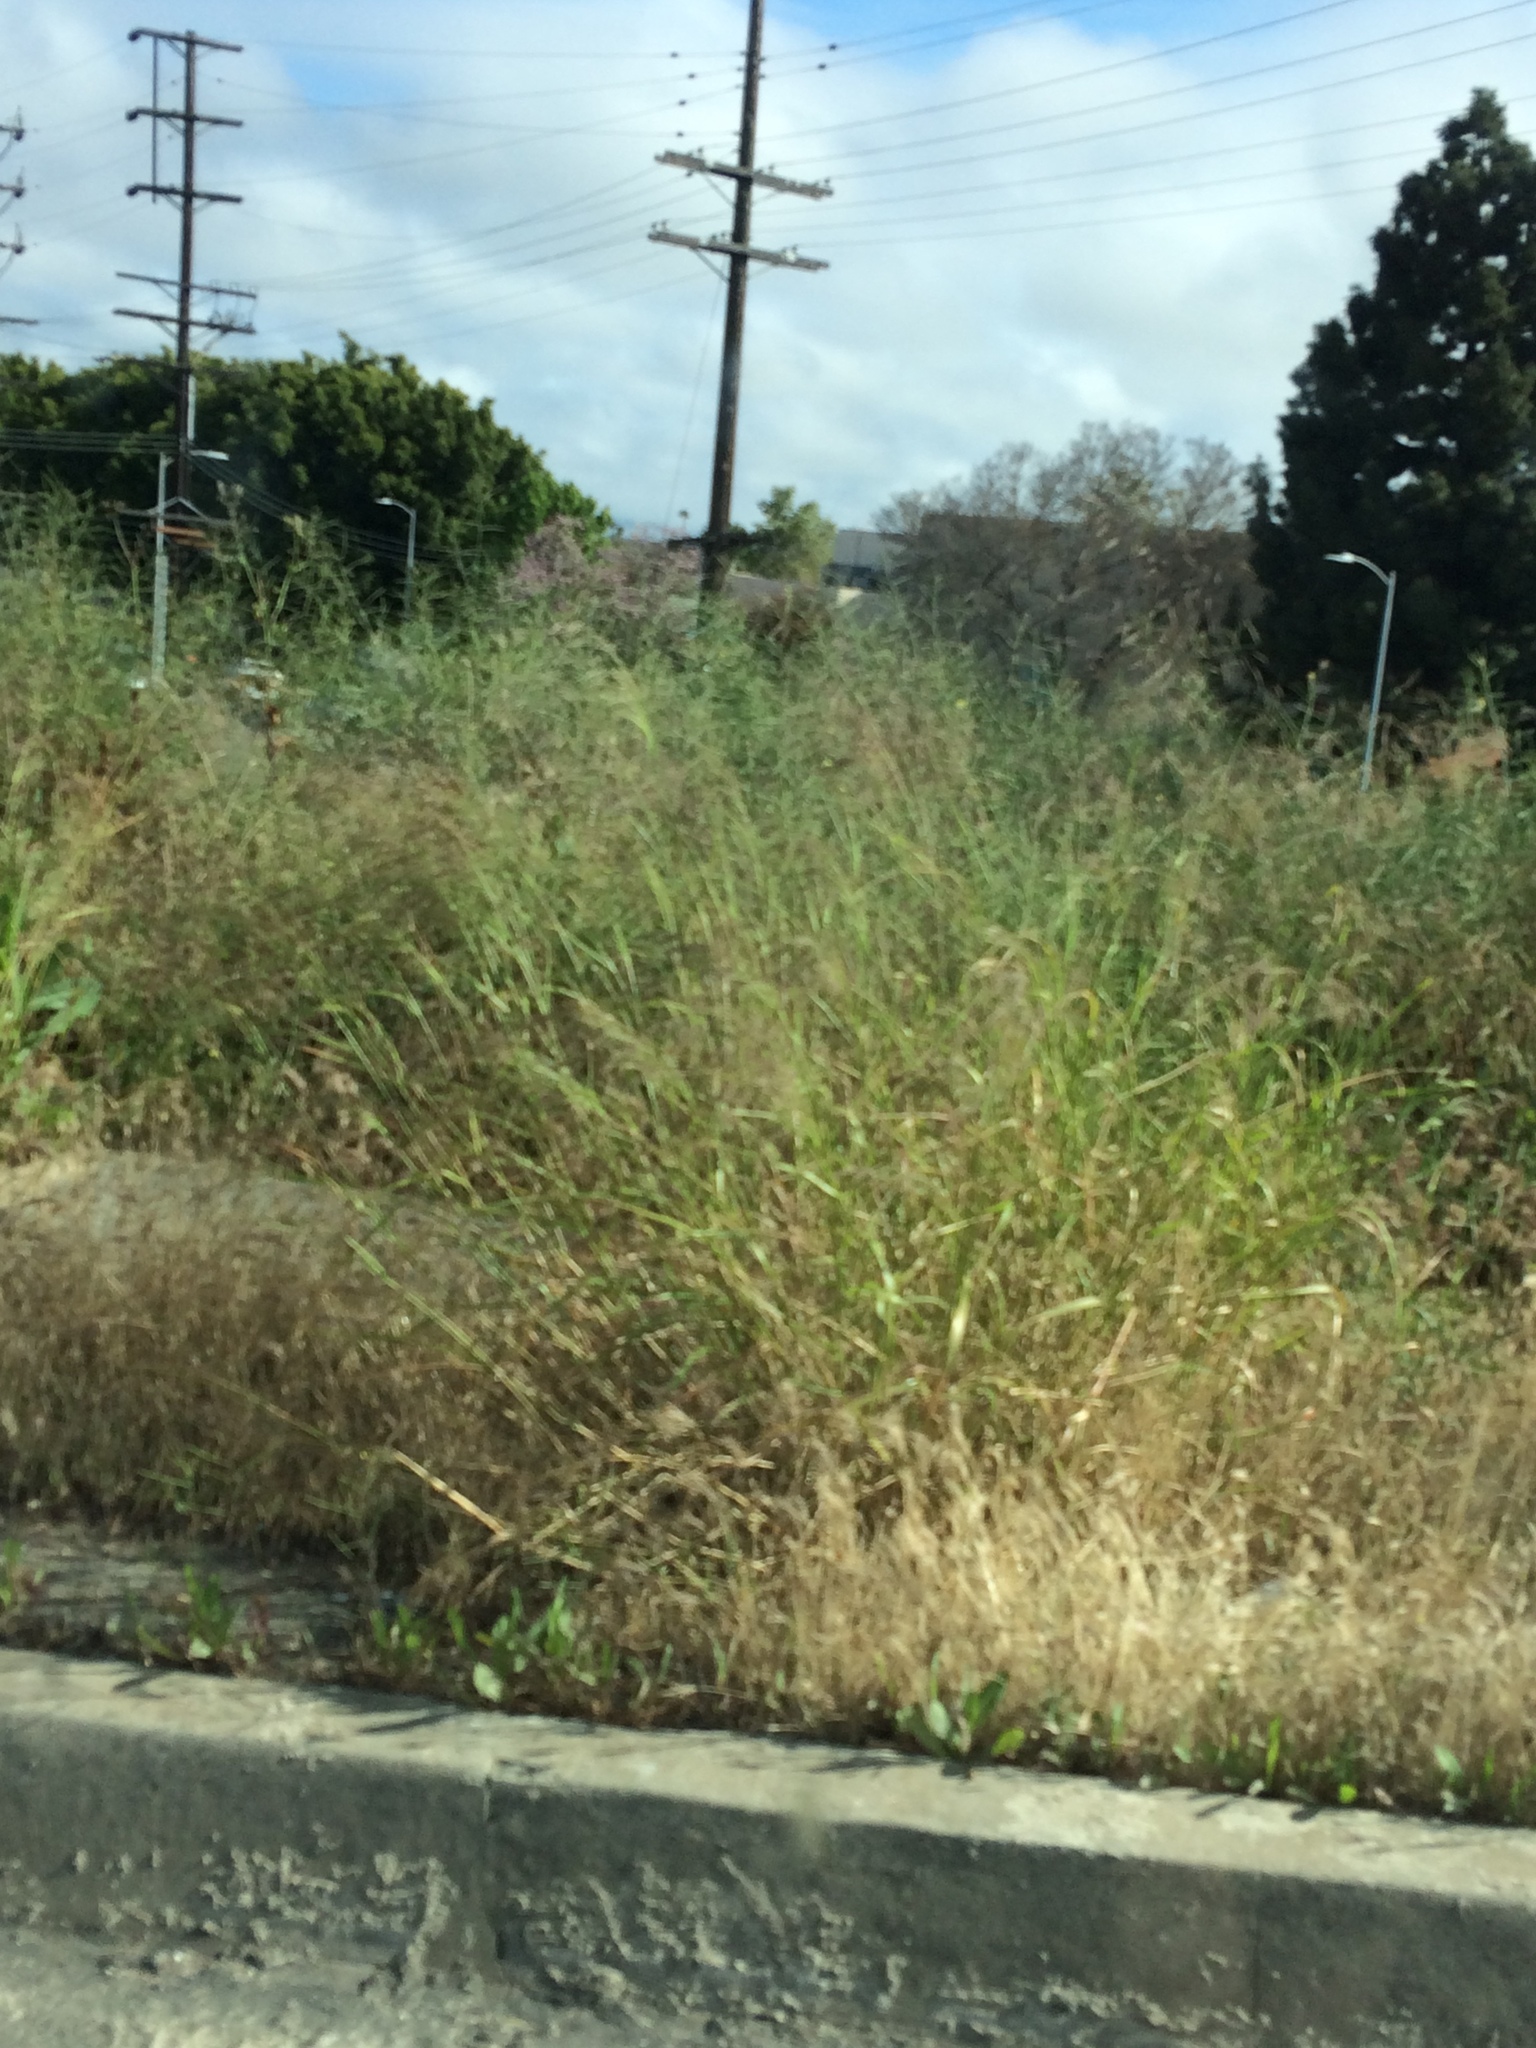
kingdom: Plantae
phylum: Tracheophyta
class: Liliopsida
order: Poales
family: Poaceae
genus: Oloptum
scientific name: Oloptum miliaceum
